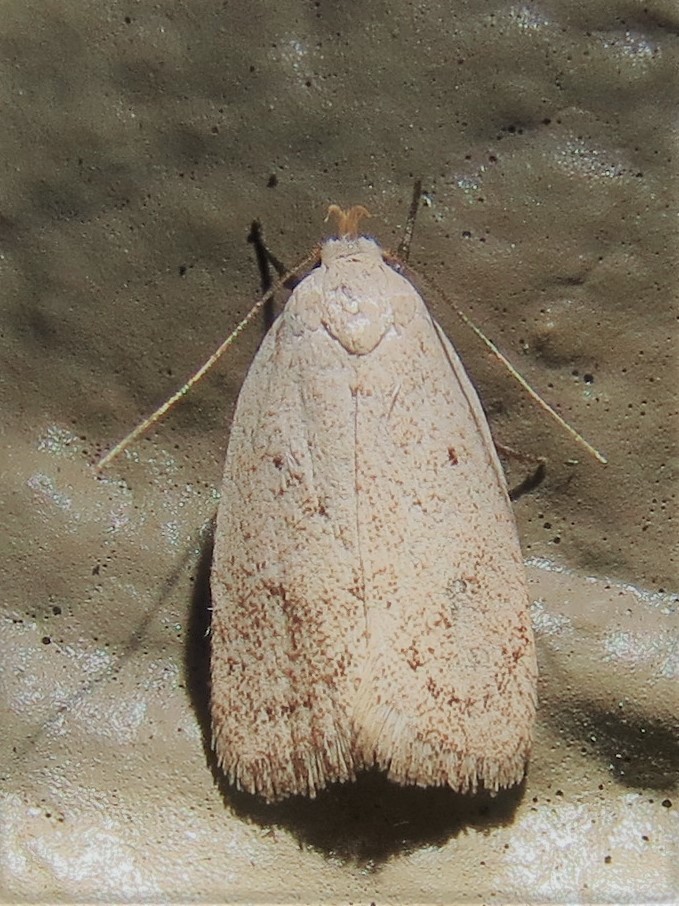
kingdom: Animalia
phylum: Arthropoda
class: Insecta
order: Lepidoptera
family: Oecophoridae
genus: Inga
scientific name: Inga cretacea
